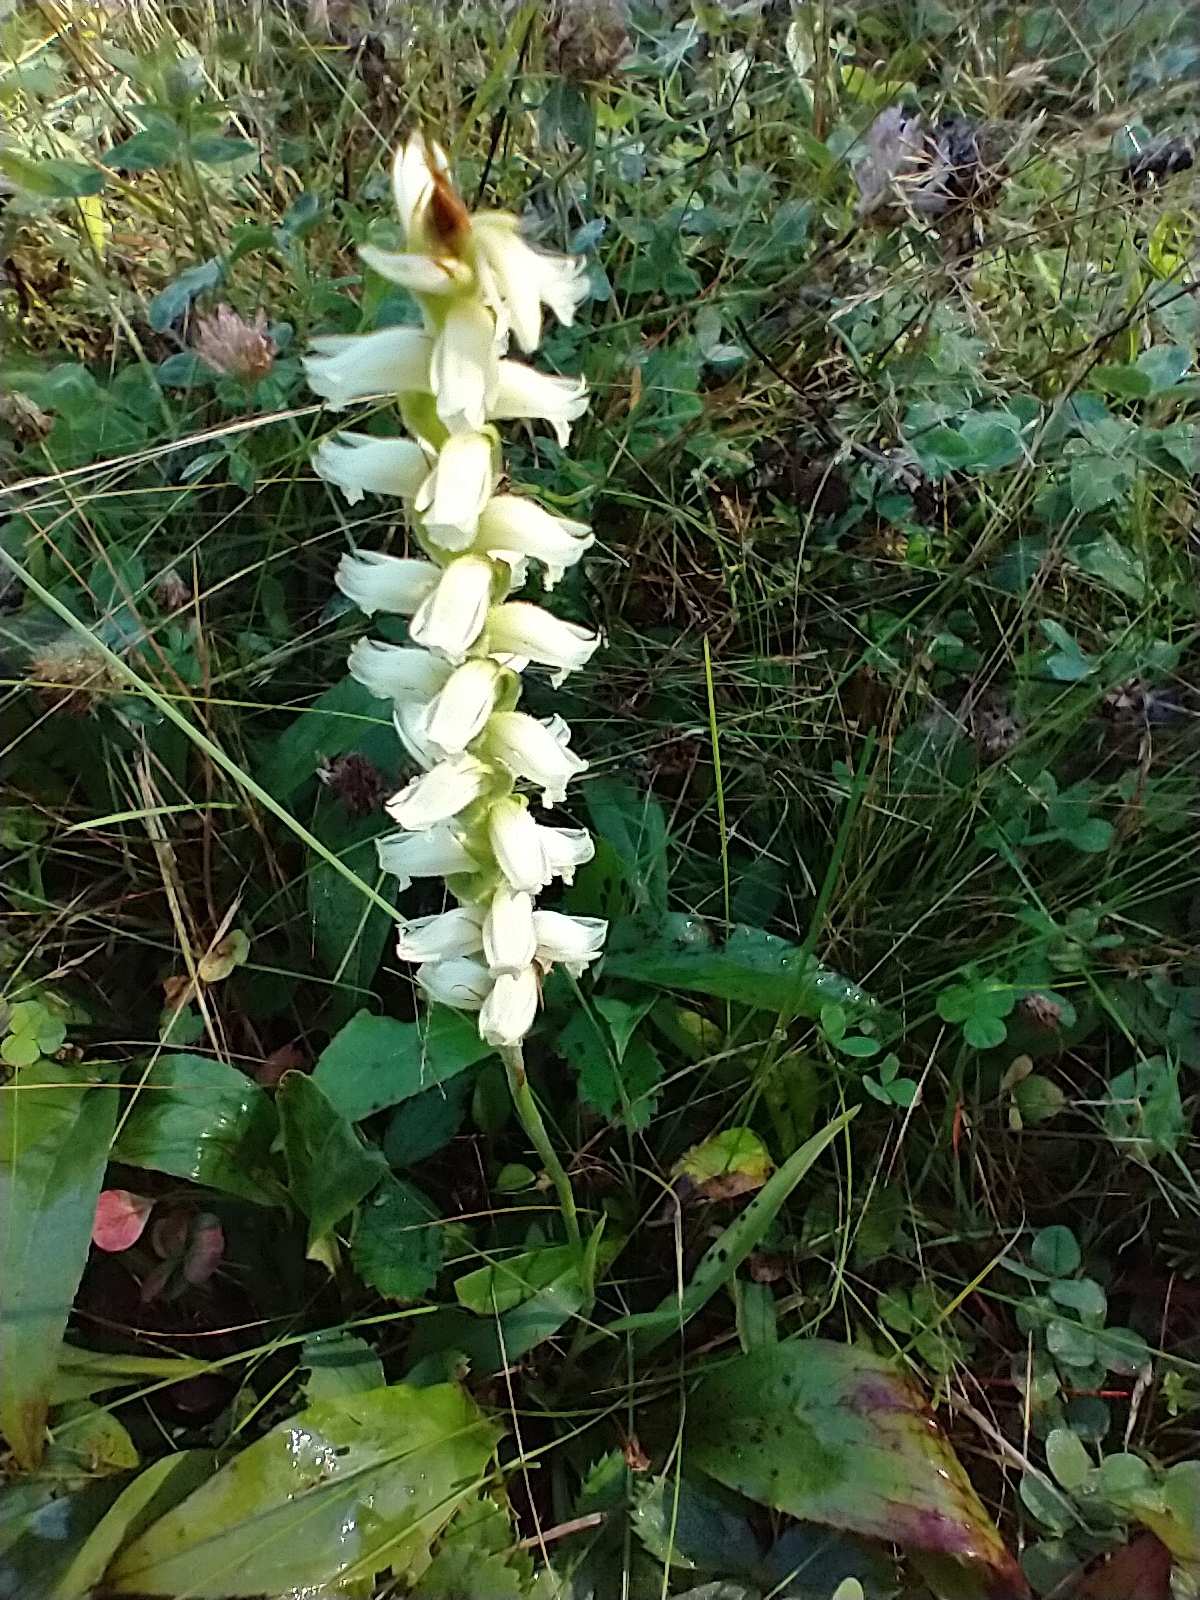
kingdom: Plantae
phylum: Tracheophyta
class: Liliopsida
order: Asparagales
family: Orchidaceae
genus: Spiranthes
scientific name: Spiranthes ochroleuca
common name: Yellow ladies'-tresses
